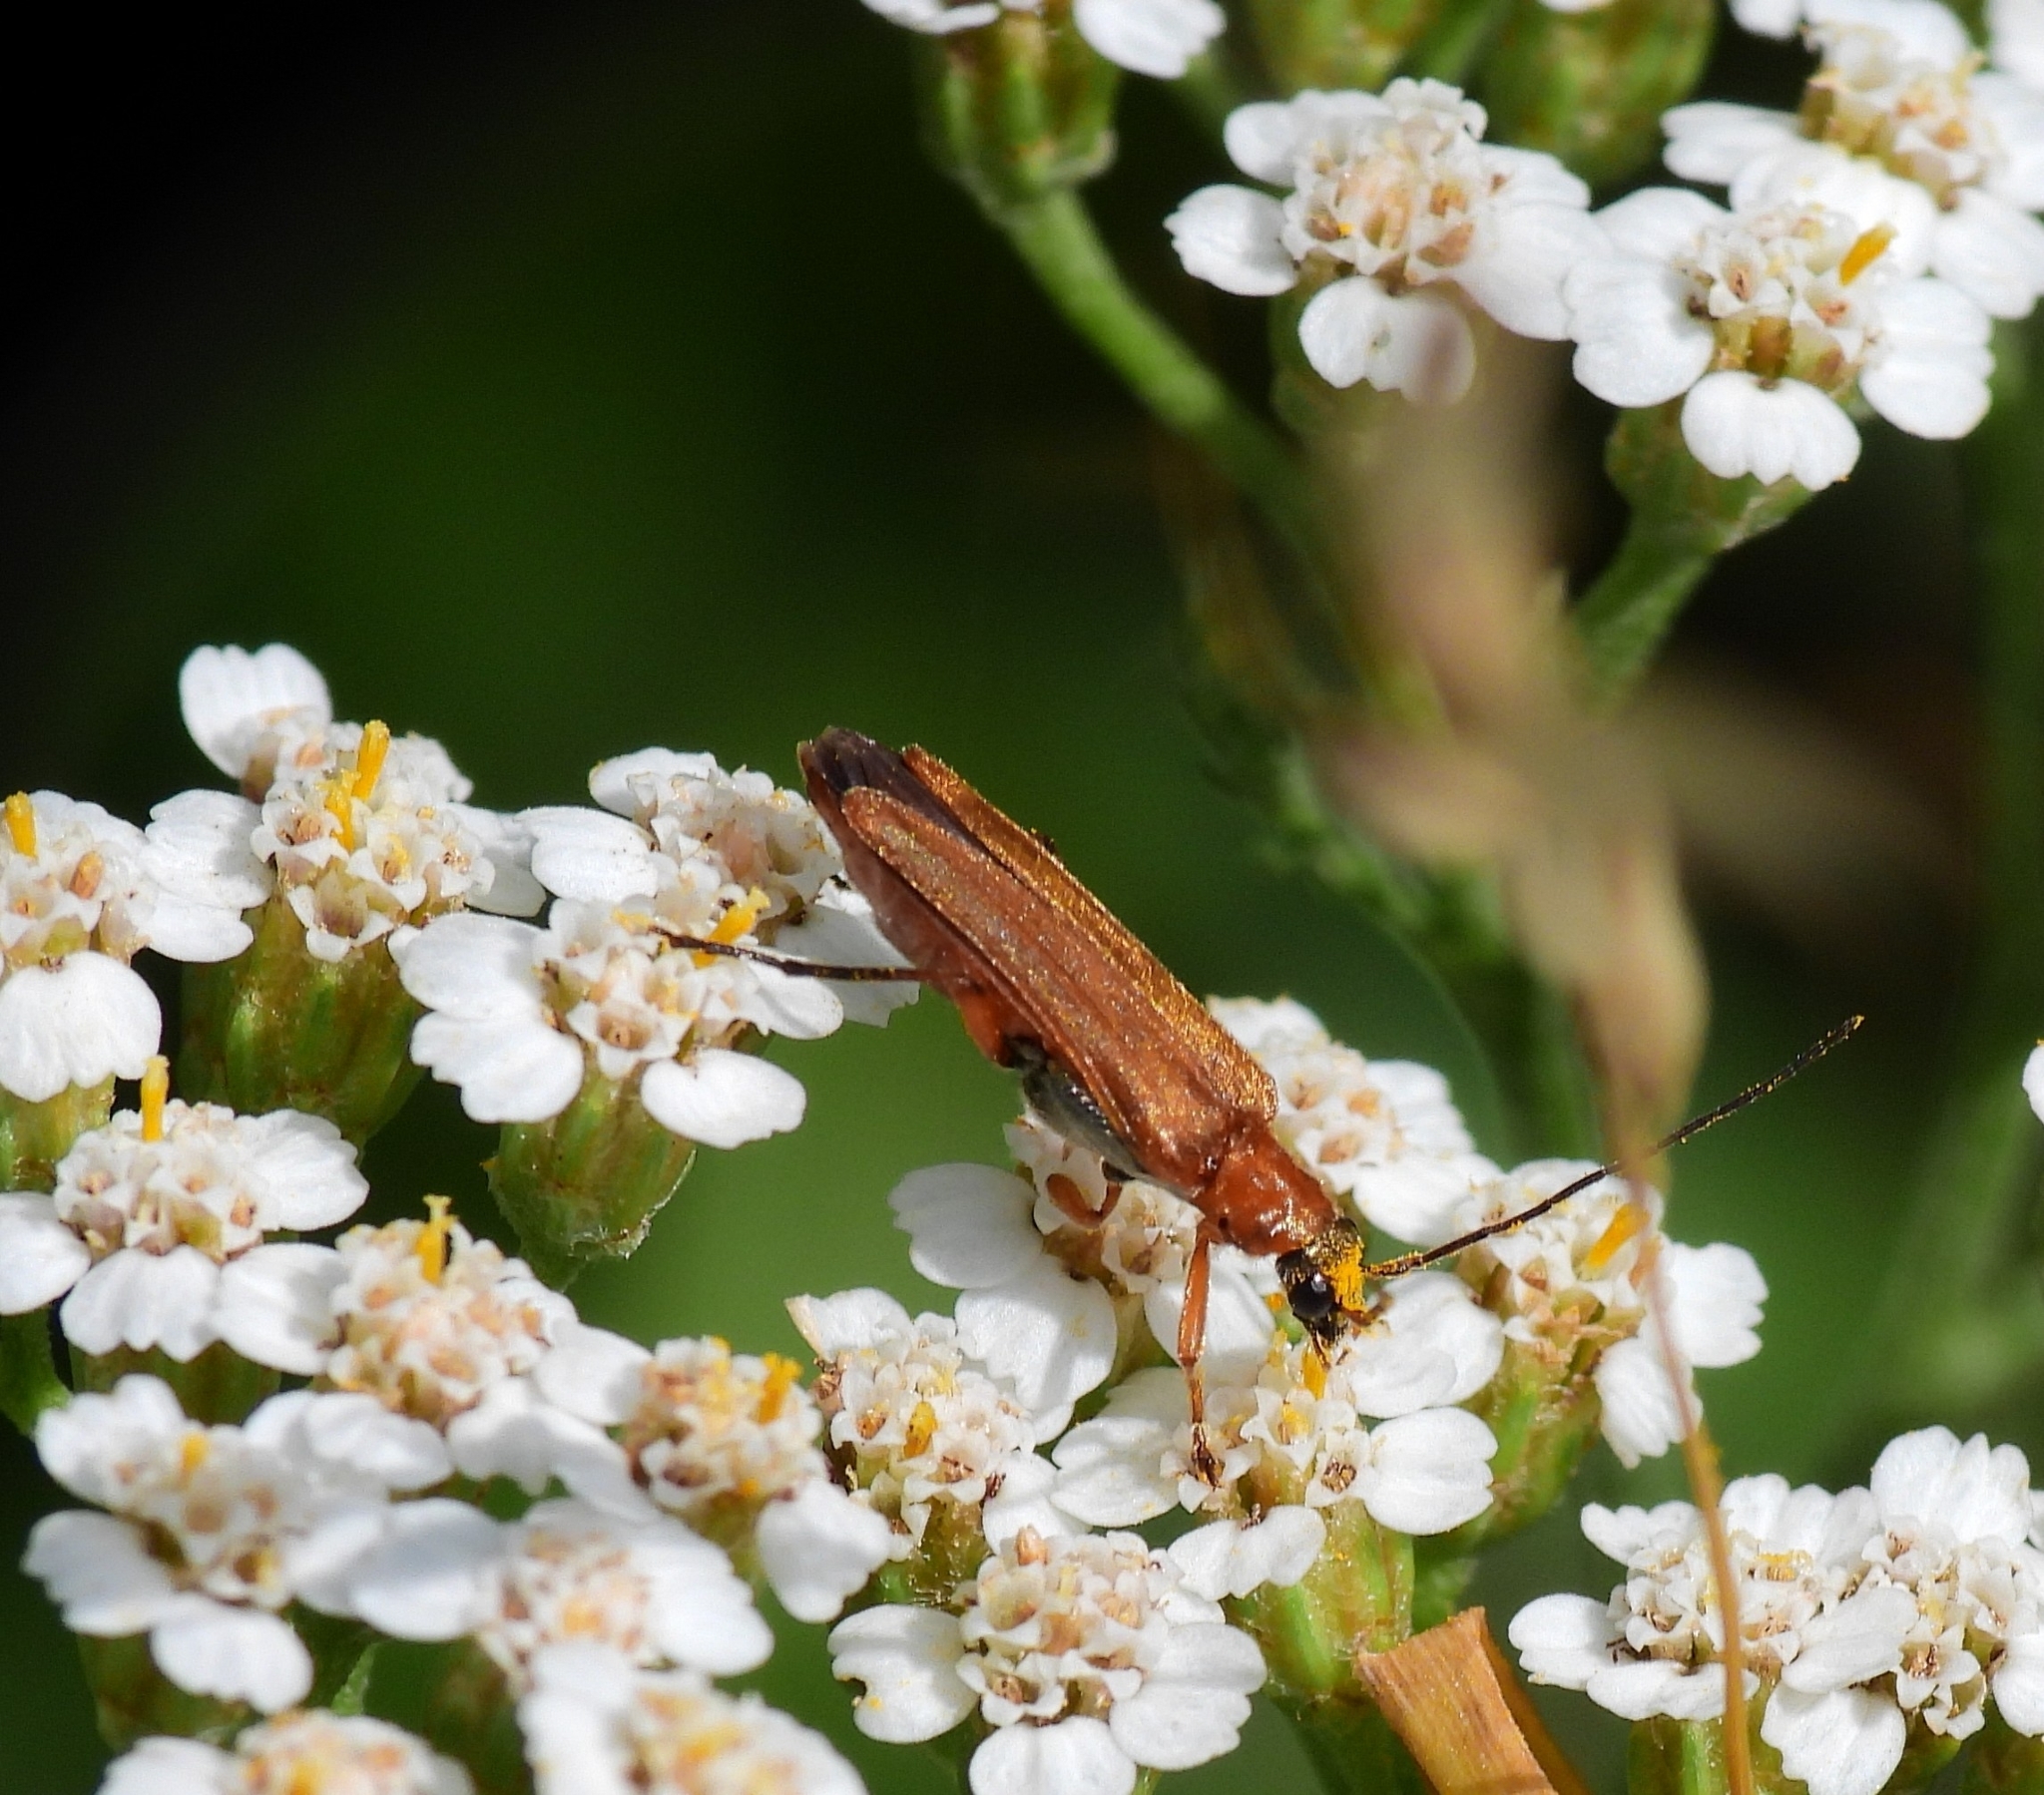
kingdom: Animalia
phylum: Arthropoda
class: Insecta
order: Coleoptera
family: Oedemeridae
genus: Oedemera
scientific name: Oedemera podagrariae
